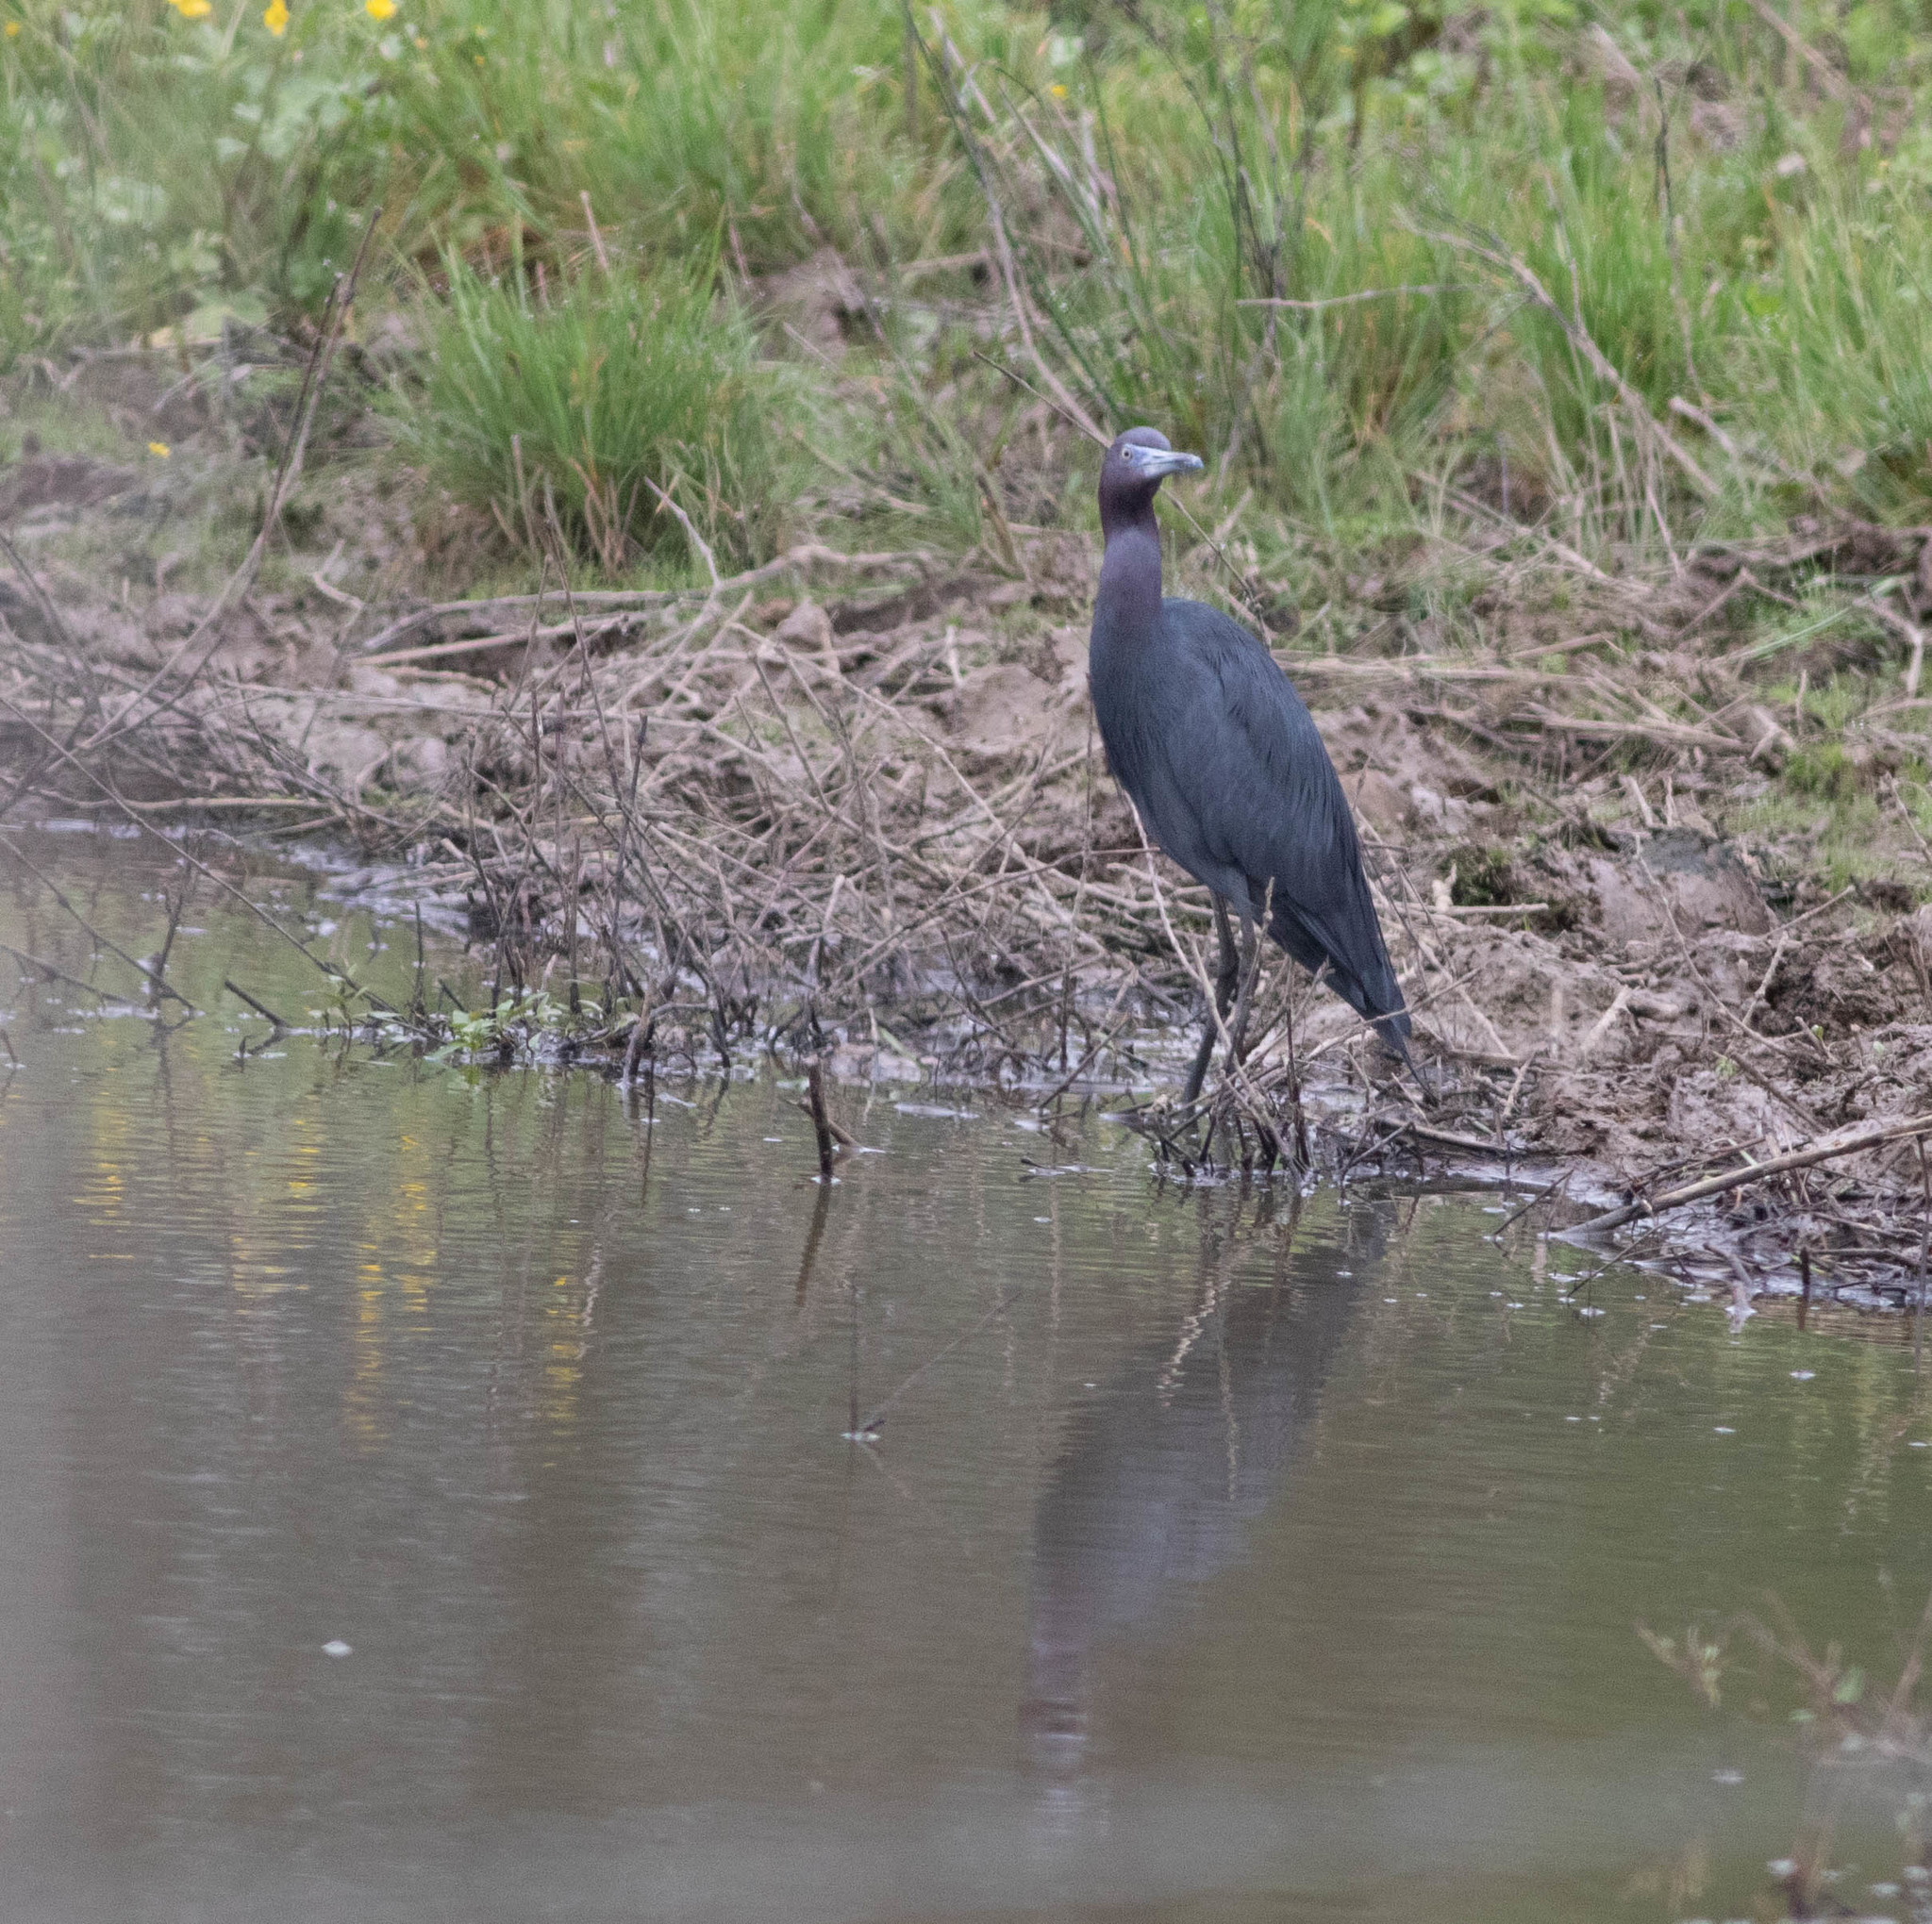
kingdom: Animalia
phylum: Chordata
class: Aves
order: Pelecaniformes
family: Ardeidae
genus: Egretta
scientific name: Egretta caerulea
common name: Little blue heron
